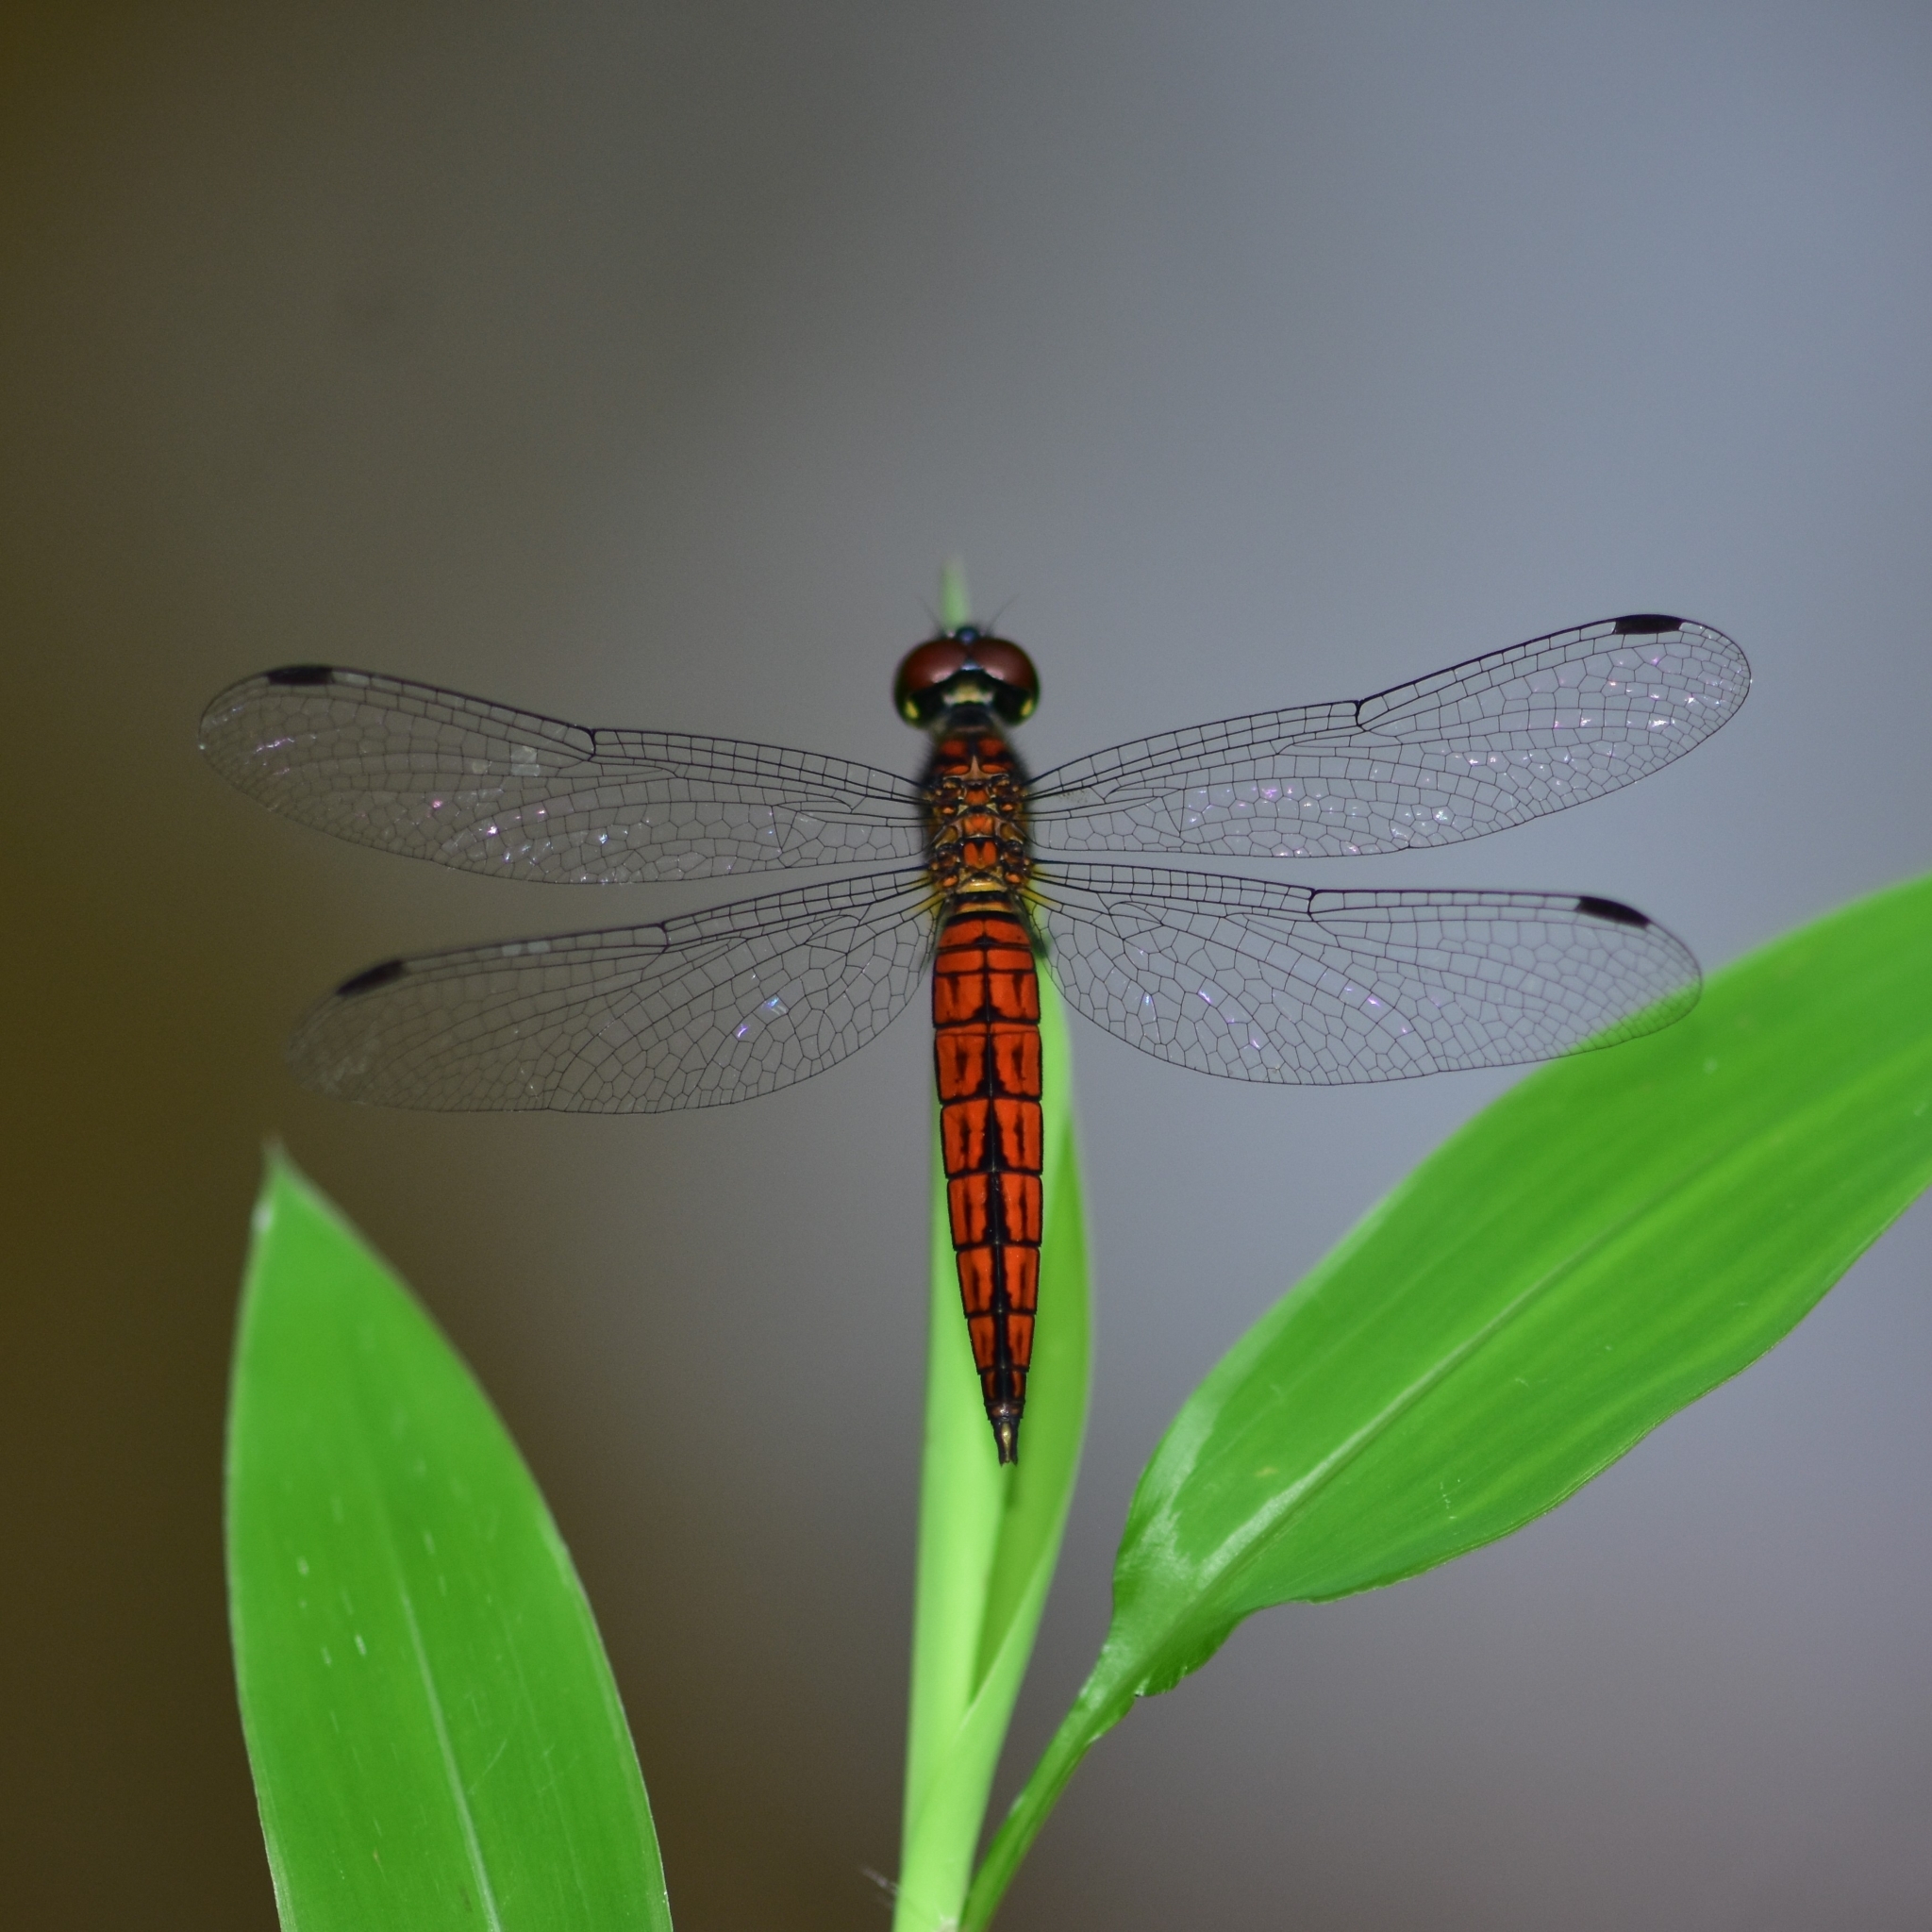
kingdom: Animalia
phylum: Arthropoda
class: Insecta
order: Odonata
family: Libellulidae
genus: Lyriothemis
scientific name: Lyriothemis acigastra
